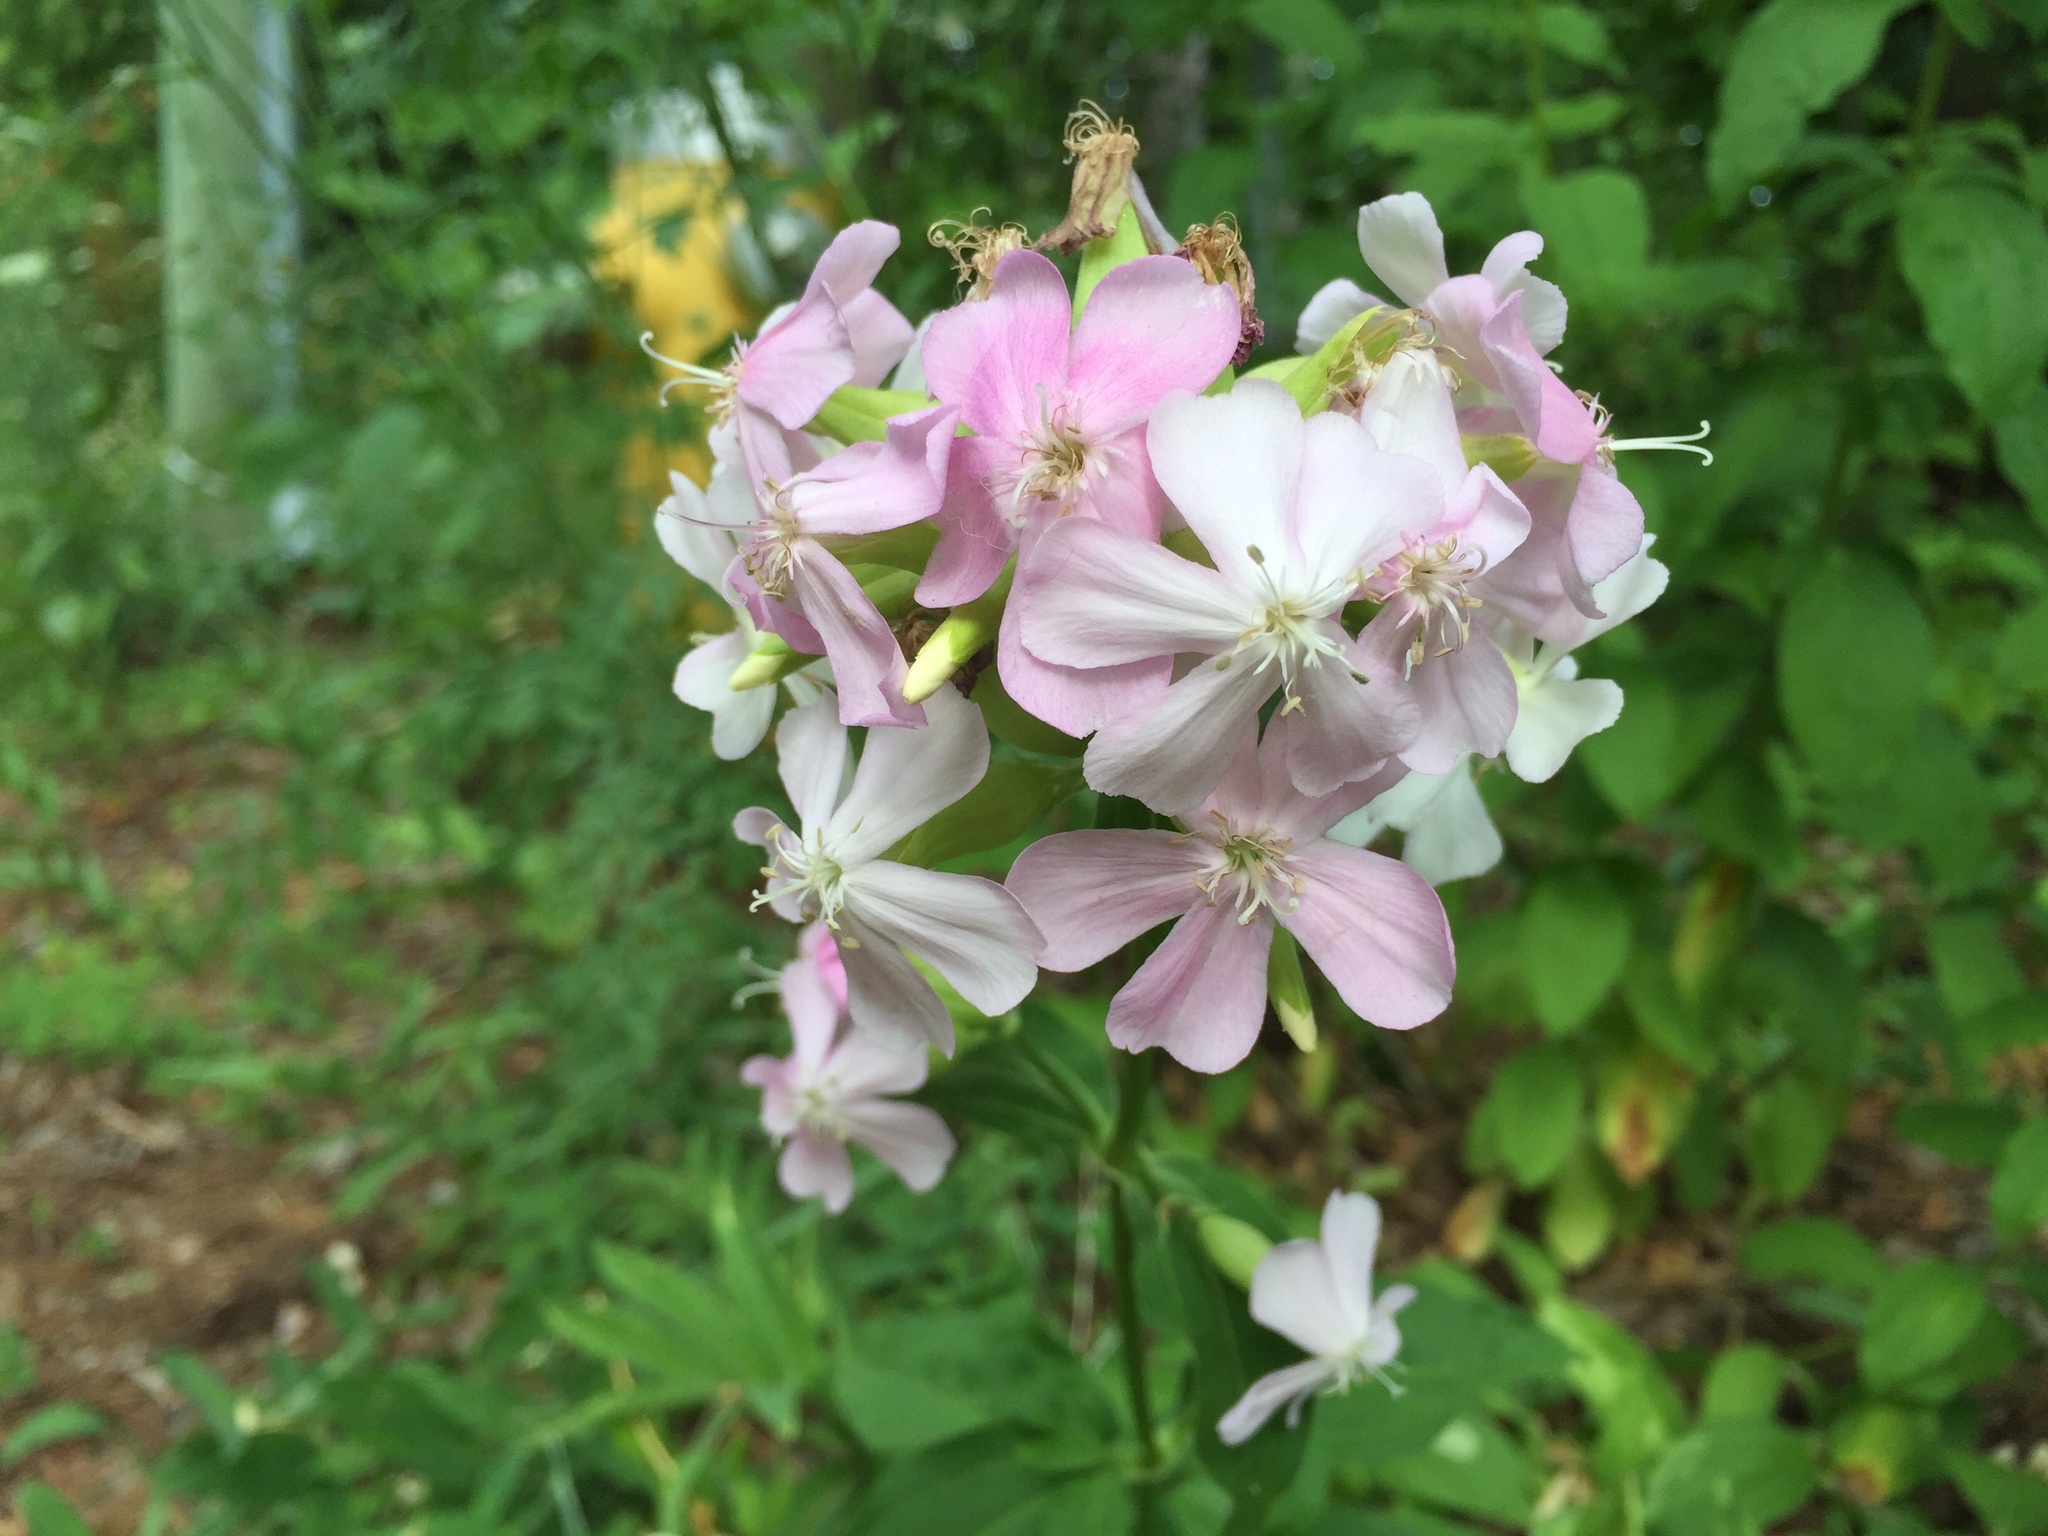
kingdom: Plantae
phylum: Tracheophyta
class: Magnoliopsida
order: Caryophyllales
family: Caryophyllaceae
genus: Saponaria
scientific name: Saponaria officinalis
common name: Soapwort
